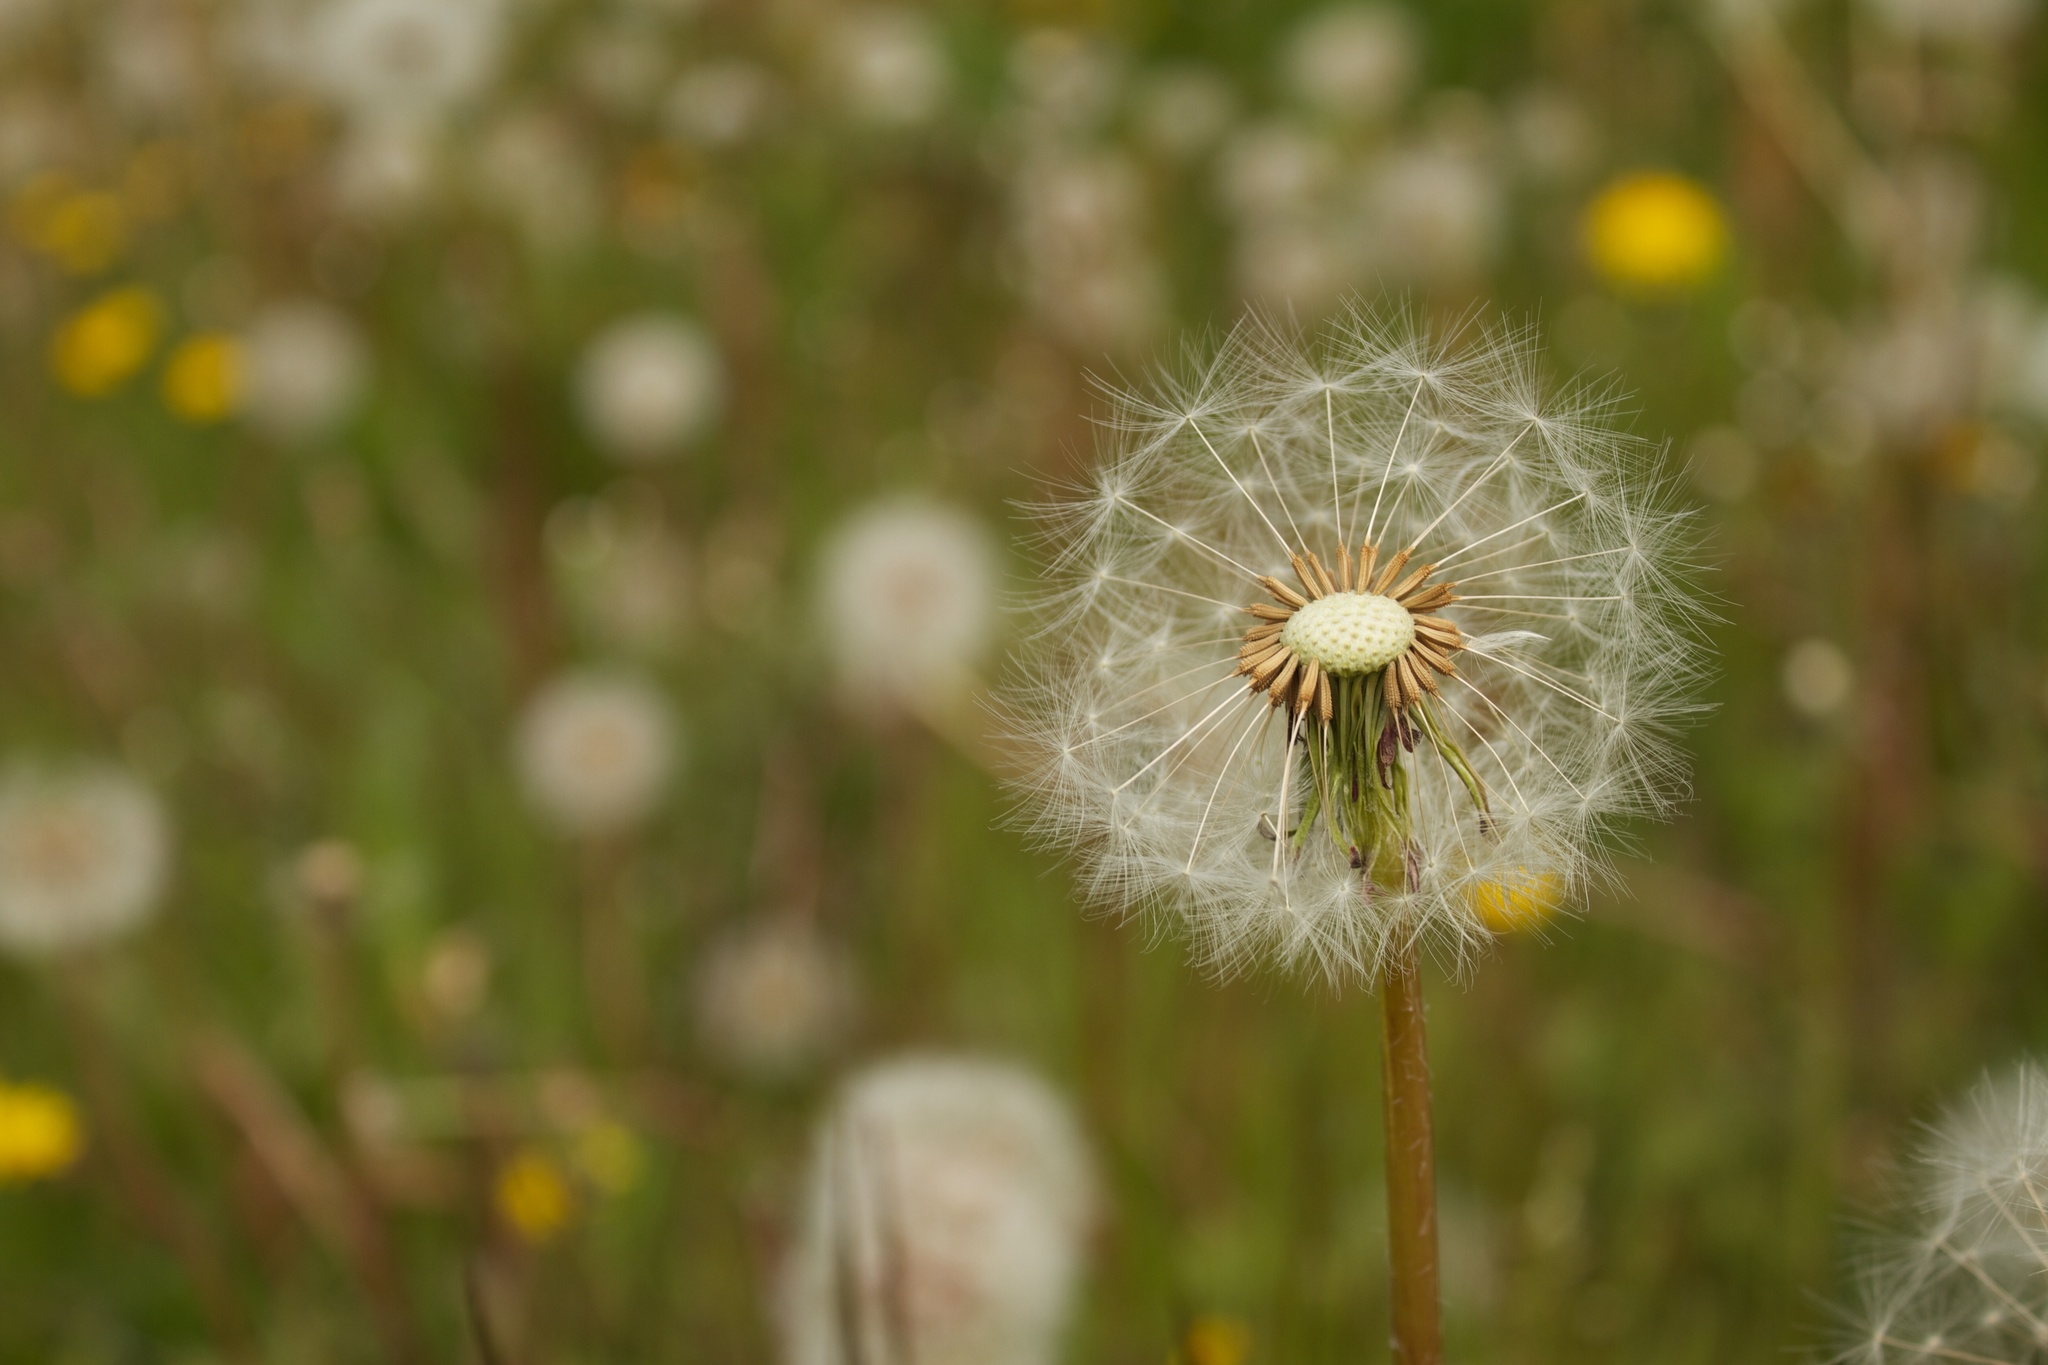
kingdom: Plantae
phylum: Tracheophyta
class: Magnoliopsida
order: Asterales
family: Asteraceae
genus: Taraxacum
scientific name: Taraxacum officinale
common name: Common dandelion
